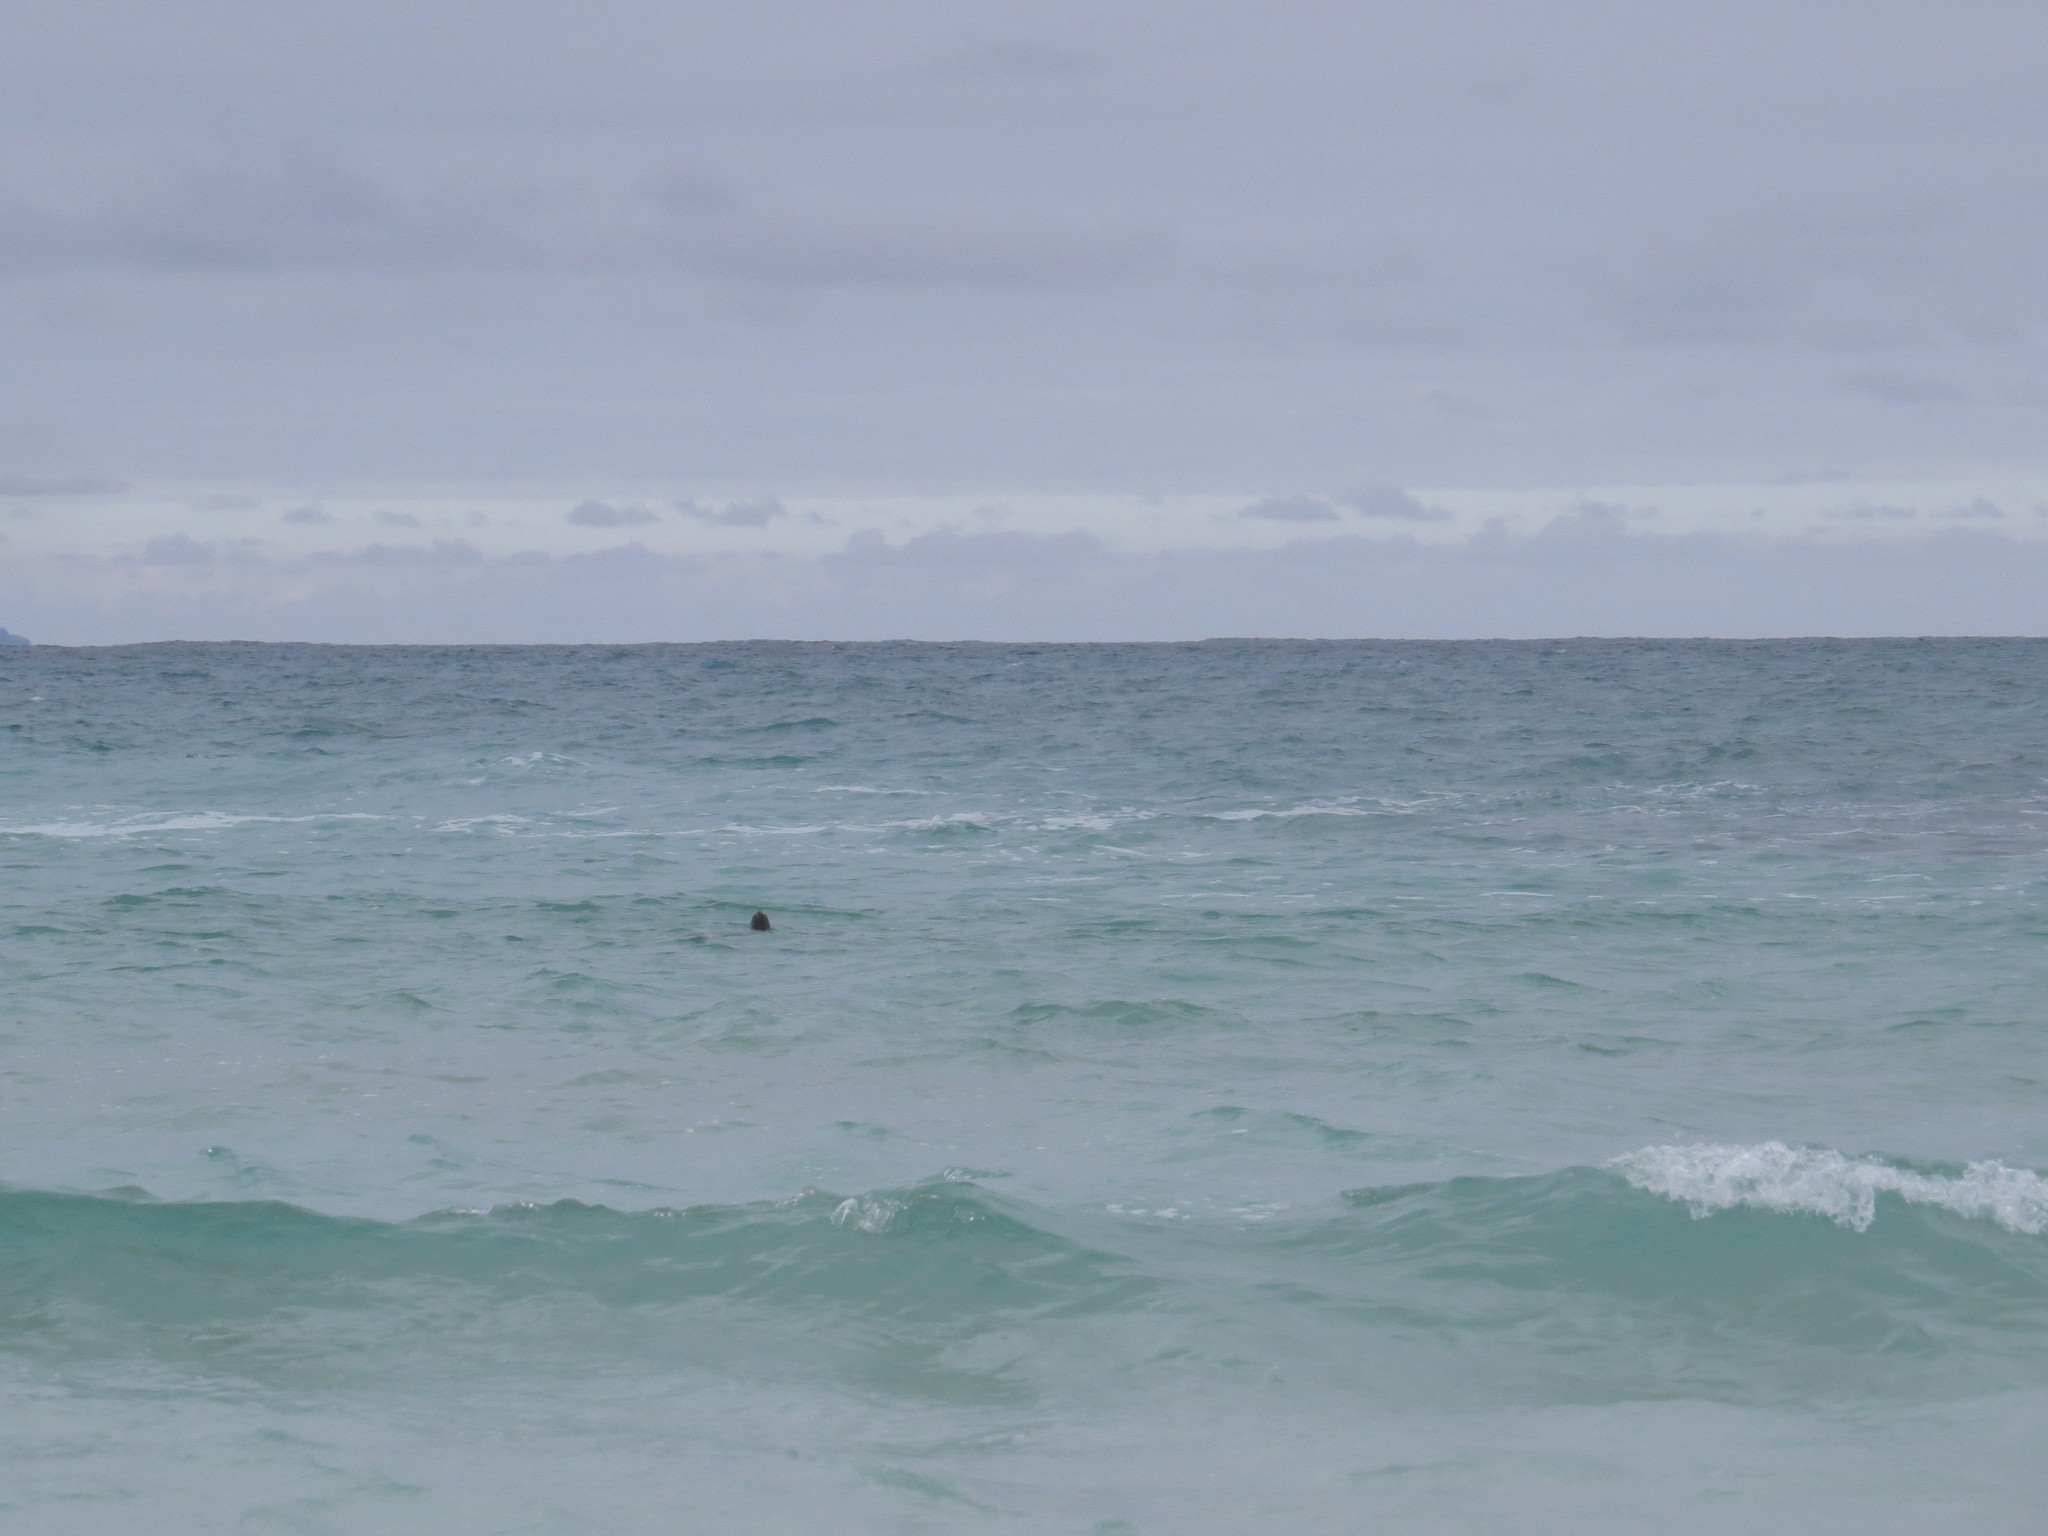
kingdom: Animalia
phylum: Chordata
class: Testudines
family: Cheloniidae
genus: Chelonia
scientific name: Chelonia mydas
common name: Green turtle
